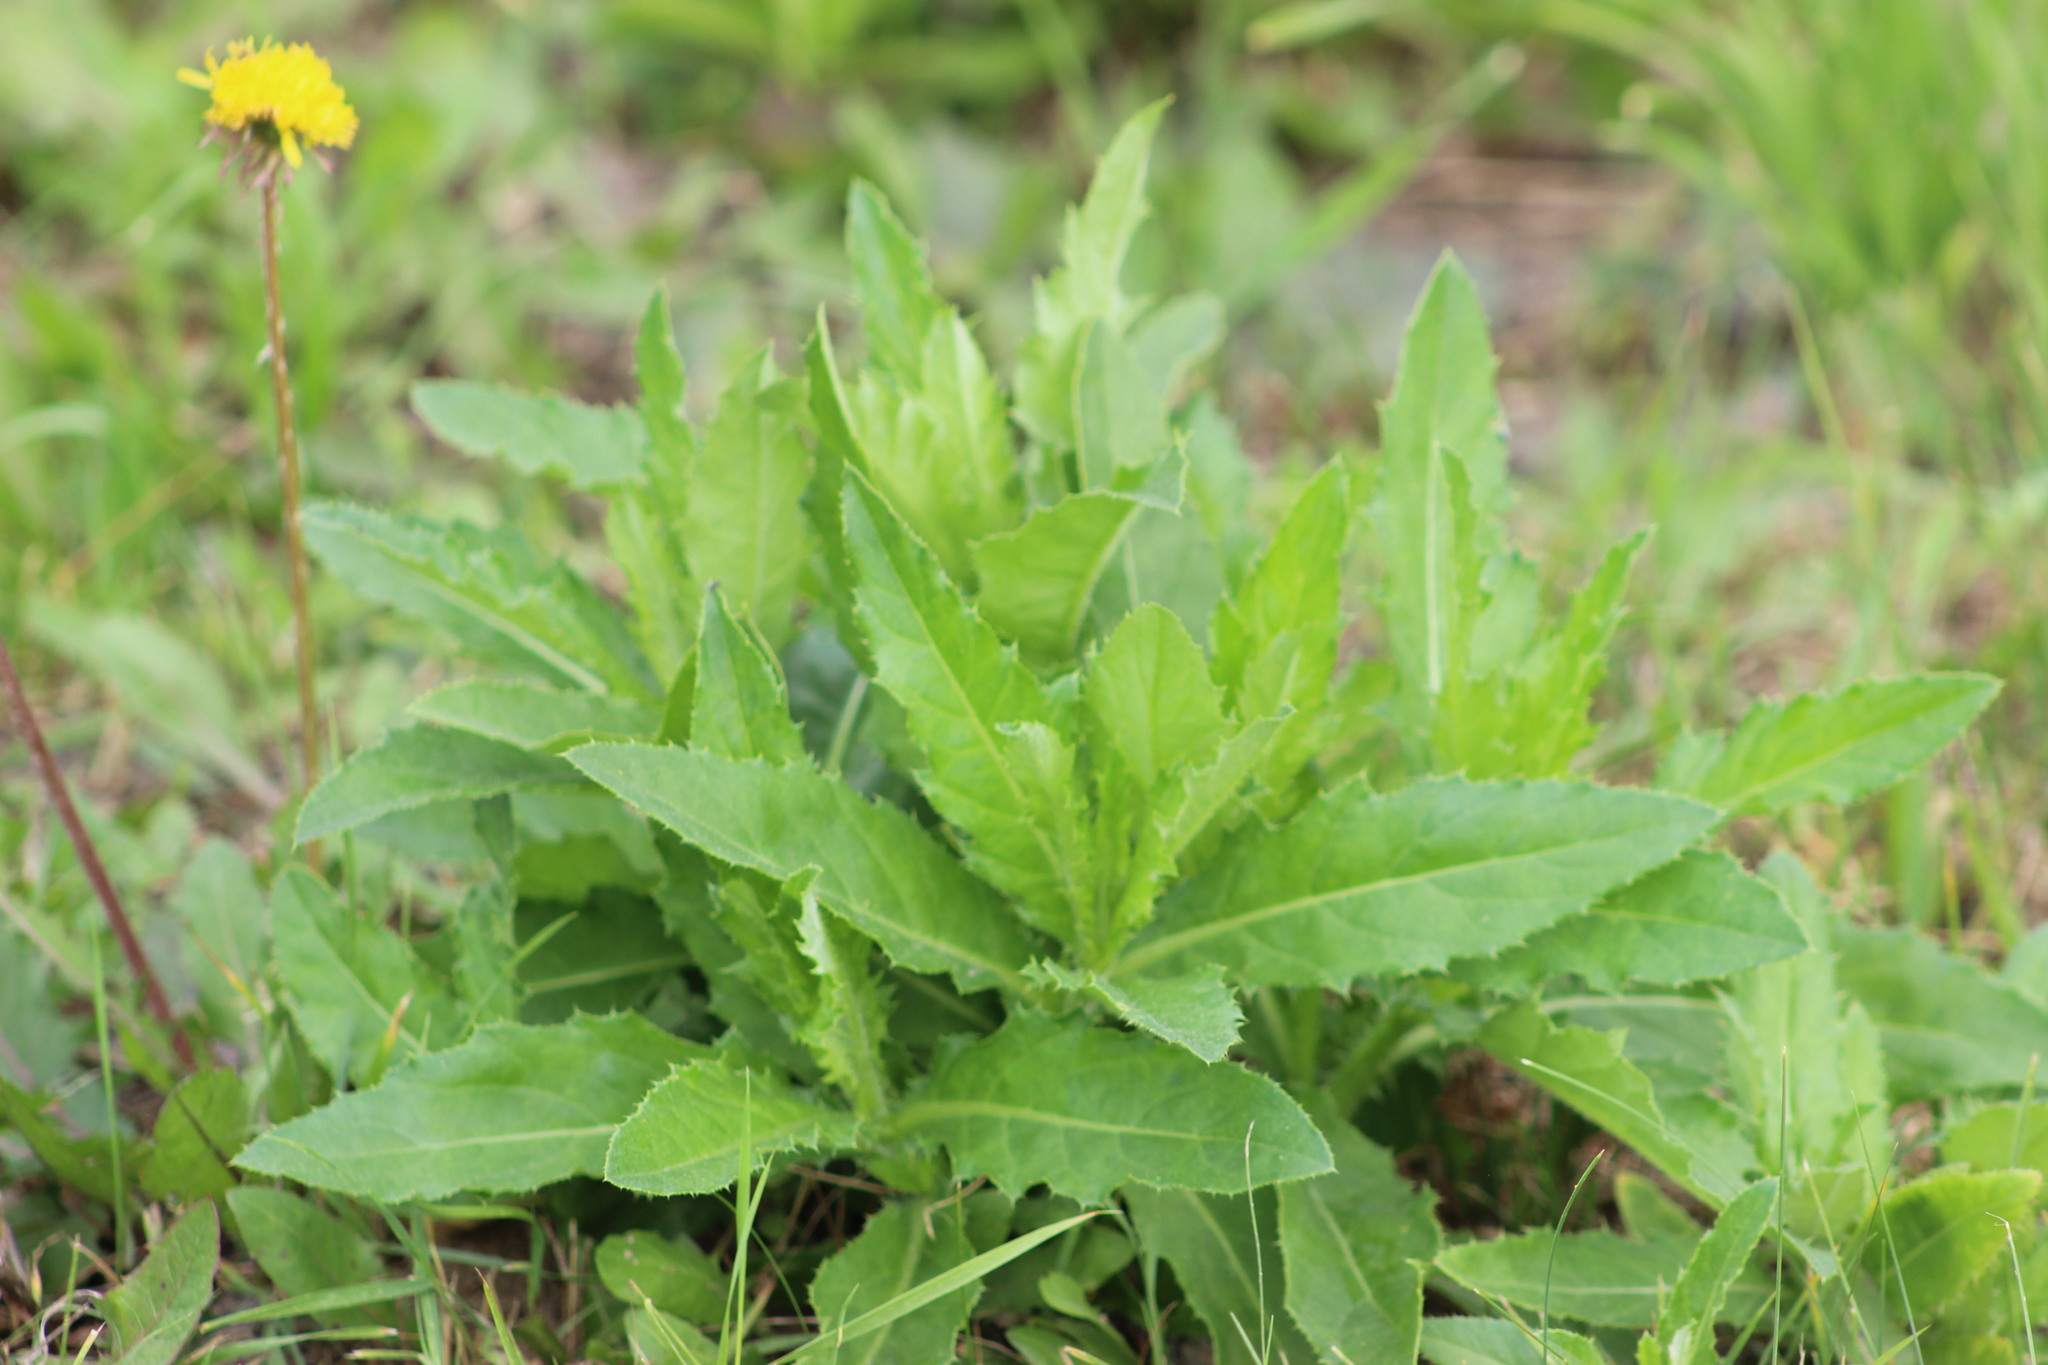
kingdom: Plantae
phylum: Tracheophyta
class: Magnoliopsida
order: Asterales
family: Asteraceae
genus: Cirsium
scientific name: Cirsium arvense
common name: Creeping thistle
